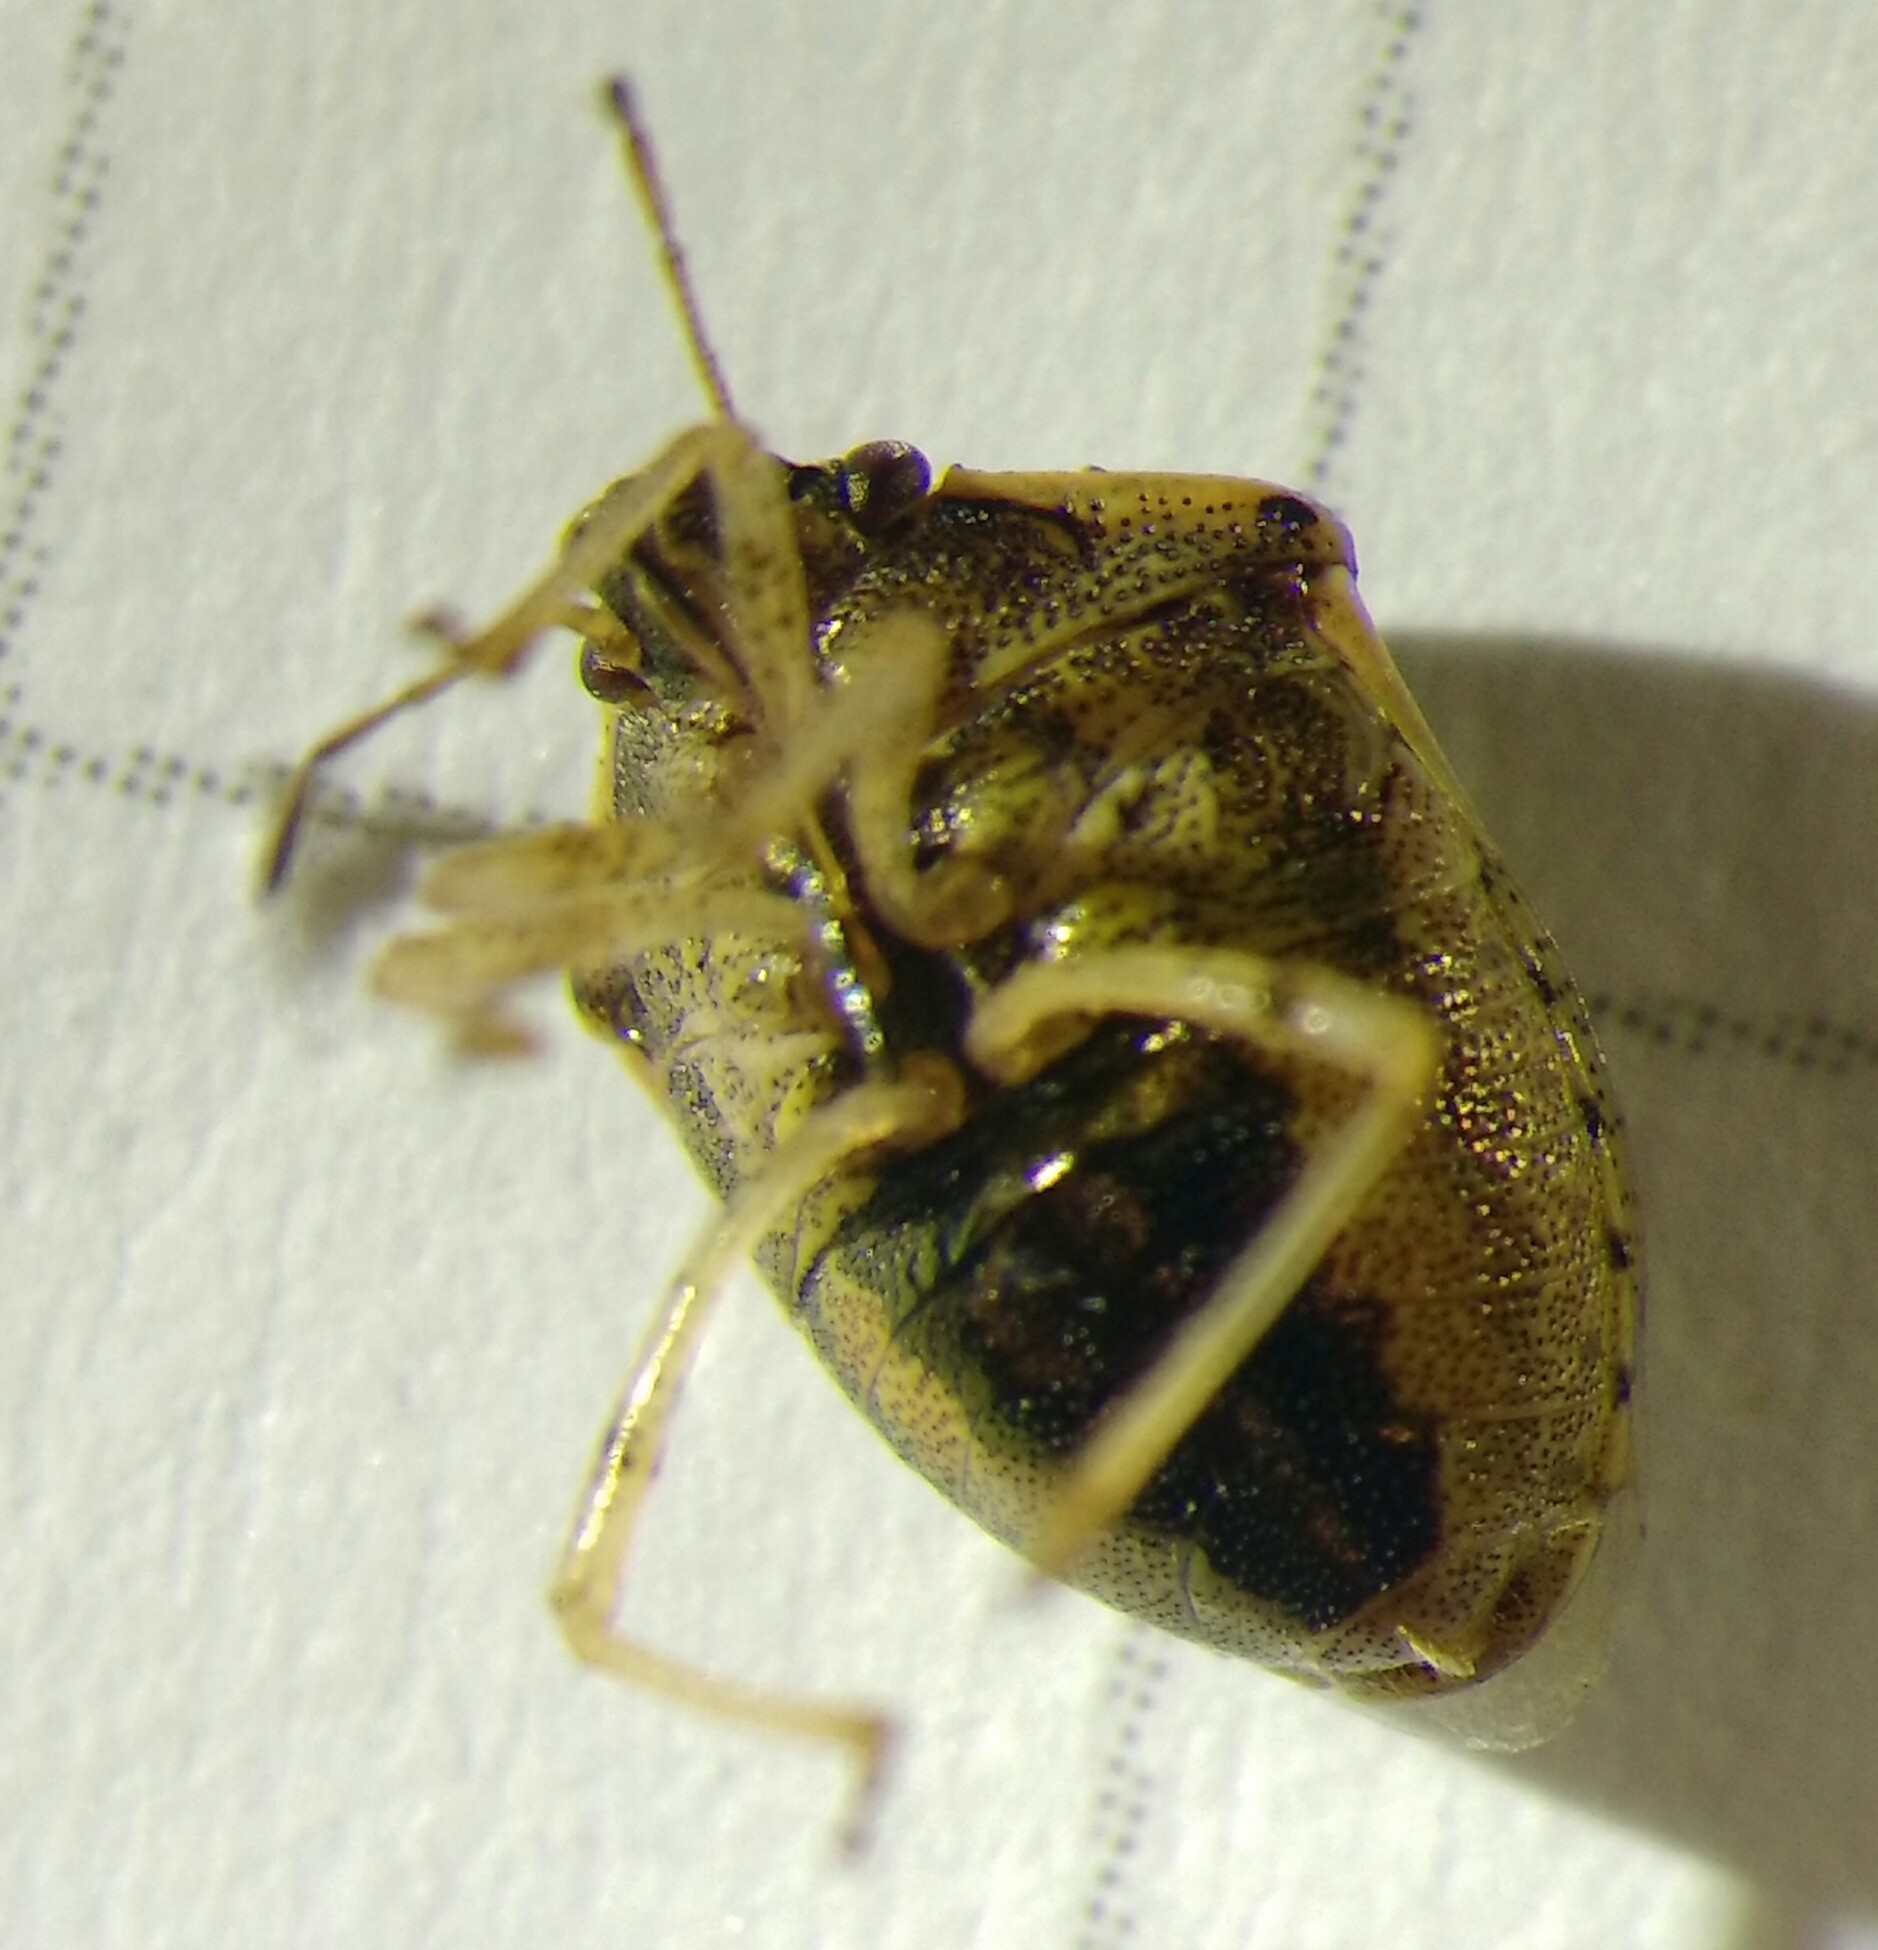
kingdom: Animalia
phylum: Arthropoda
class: Insecta
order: Hemiptera
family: Pentatomidae
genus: Eysarcoris
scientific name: Eysarcoris ventralis
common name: White-spotted stink bug
